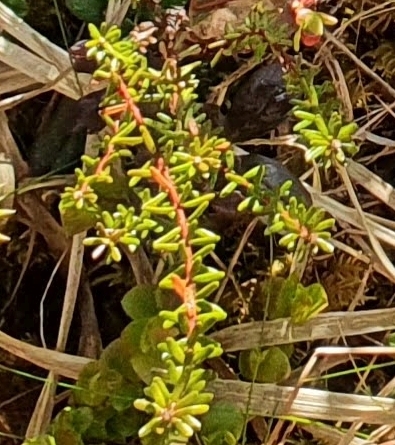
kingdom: Plantae
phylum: Tracheophyta
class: Magnoliopsida
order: Ericales
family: Ericaceae
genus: Empetrum
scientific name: Empetrum nigrum
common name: Black crowberry
